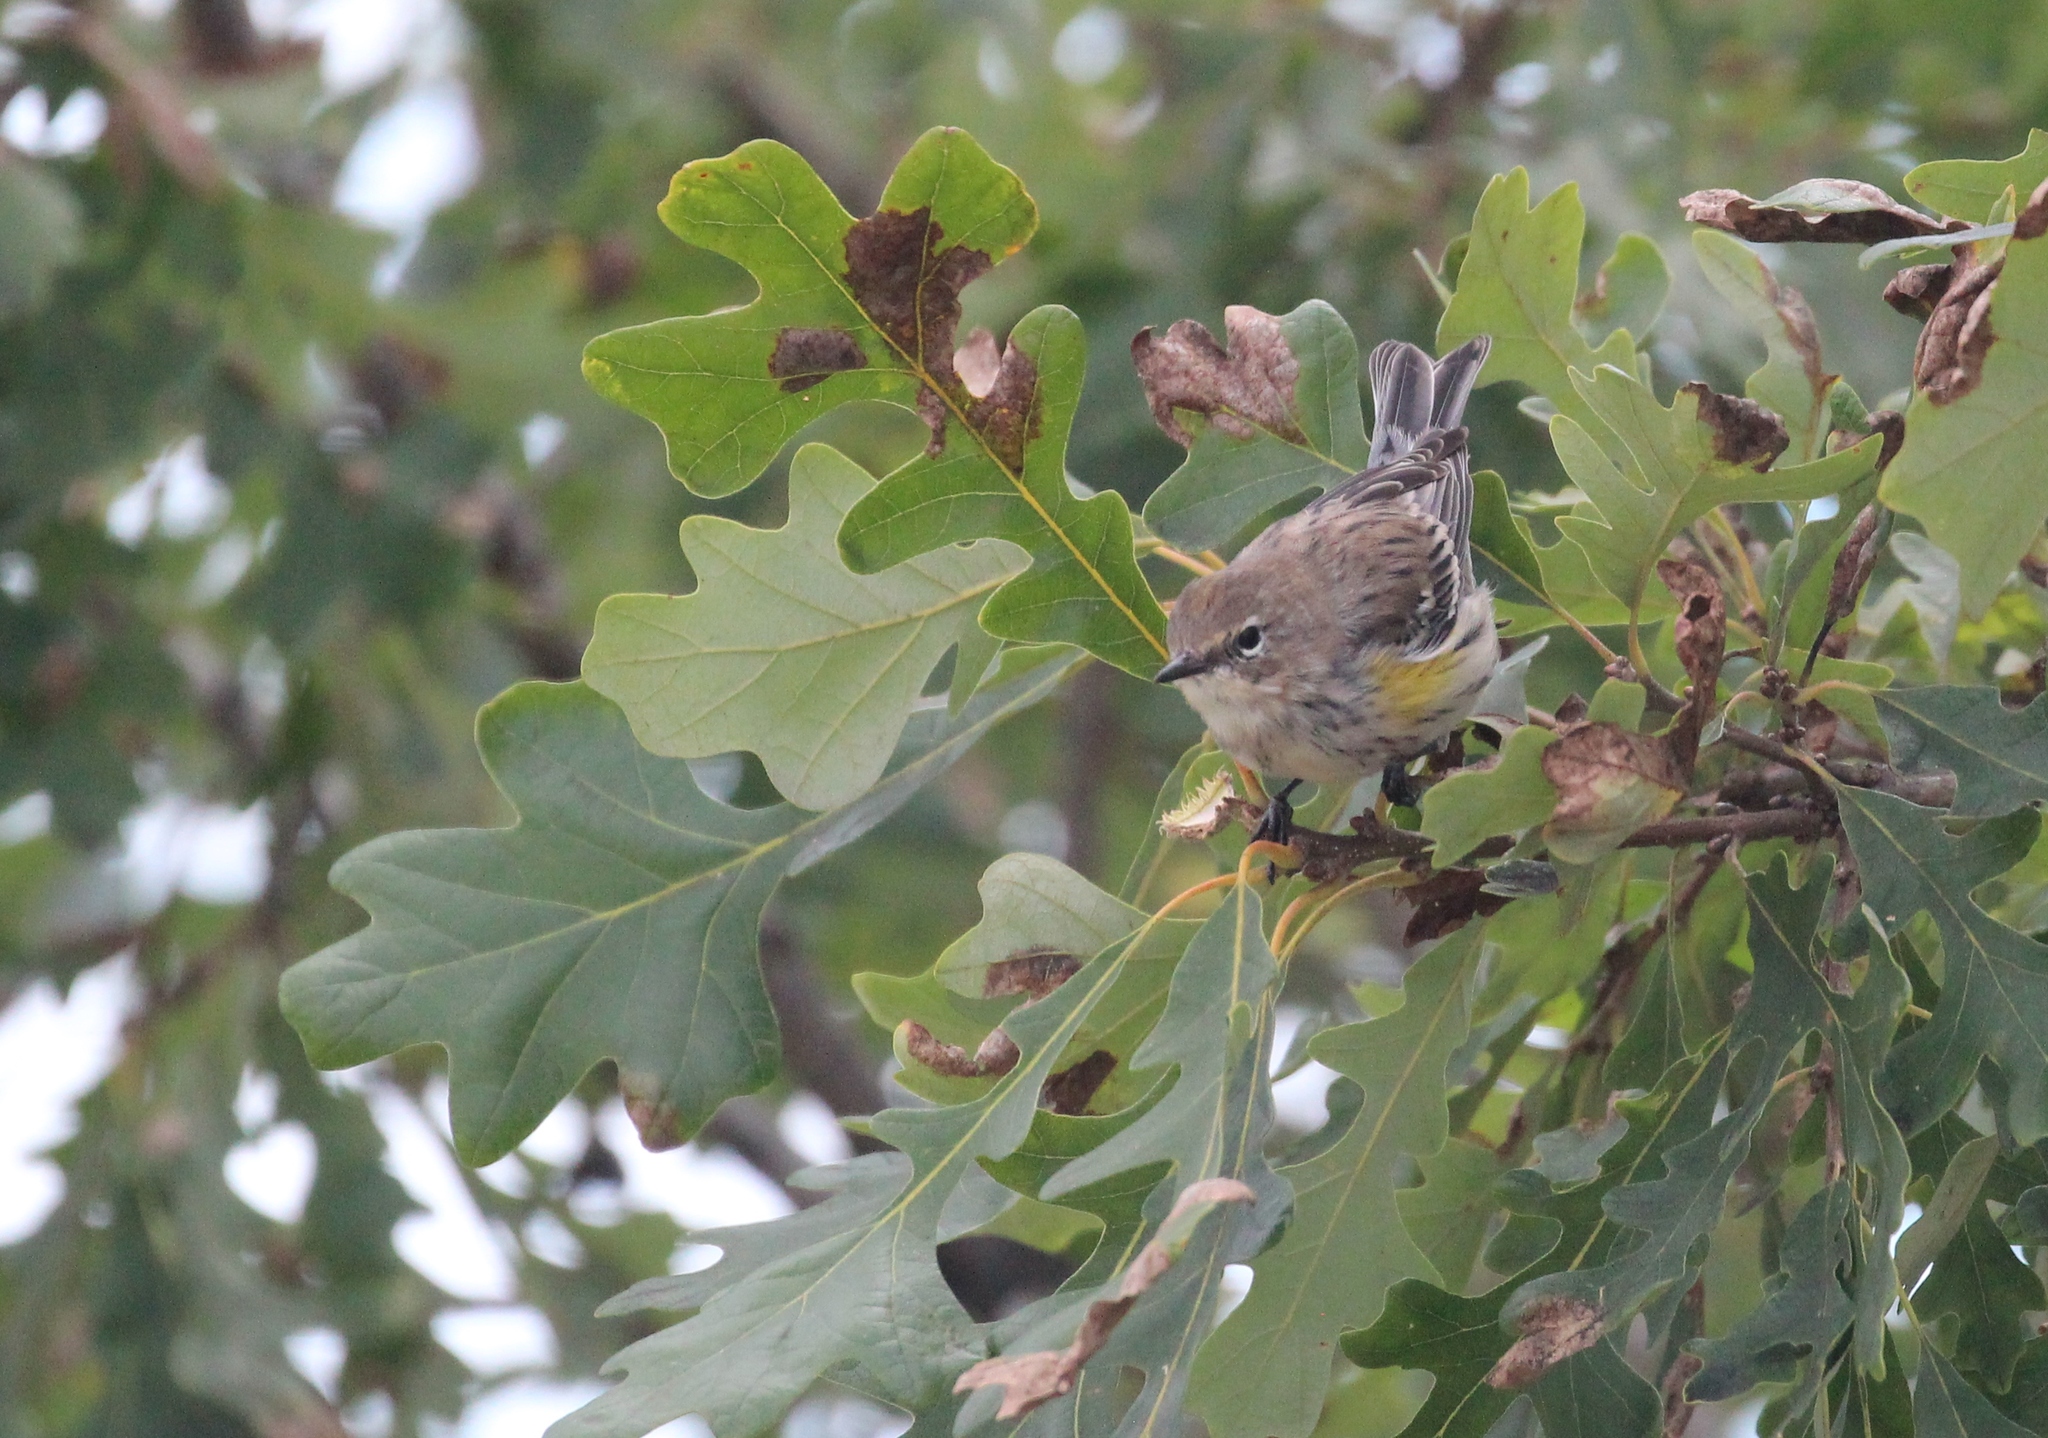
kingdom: Animalia
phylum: Chordata
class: Aves
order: Passeriformes
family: Parulidae
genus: Setophaga
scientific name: Setophaga coronata
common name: Myrtle warbler
